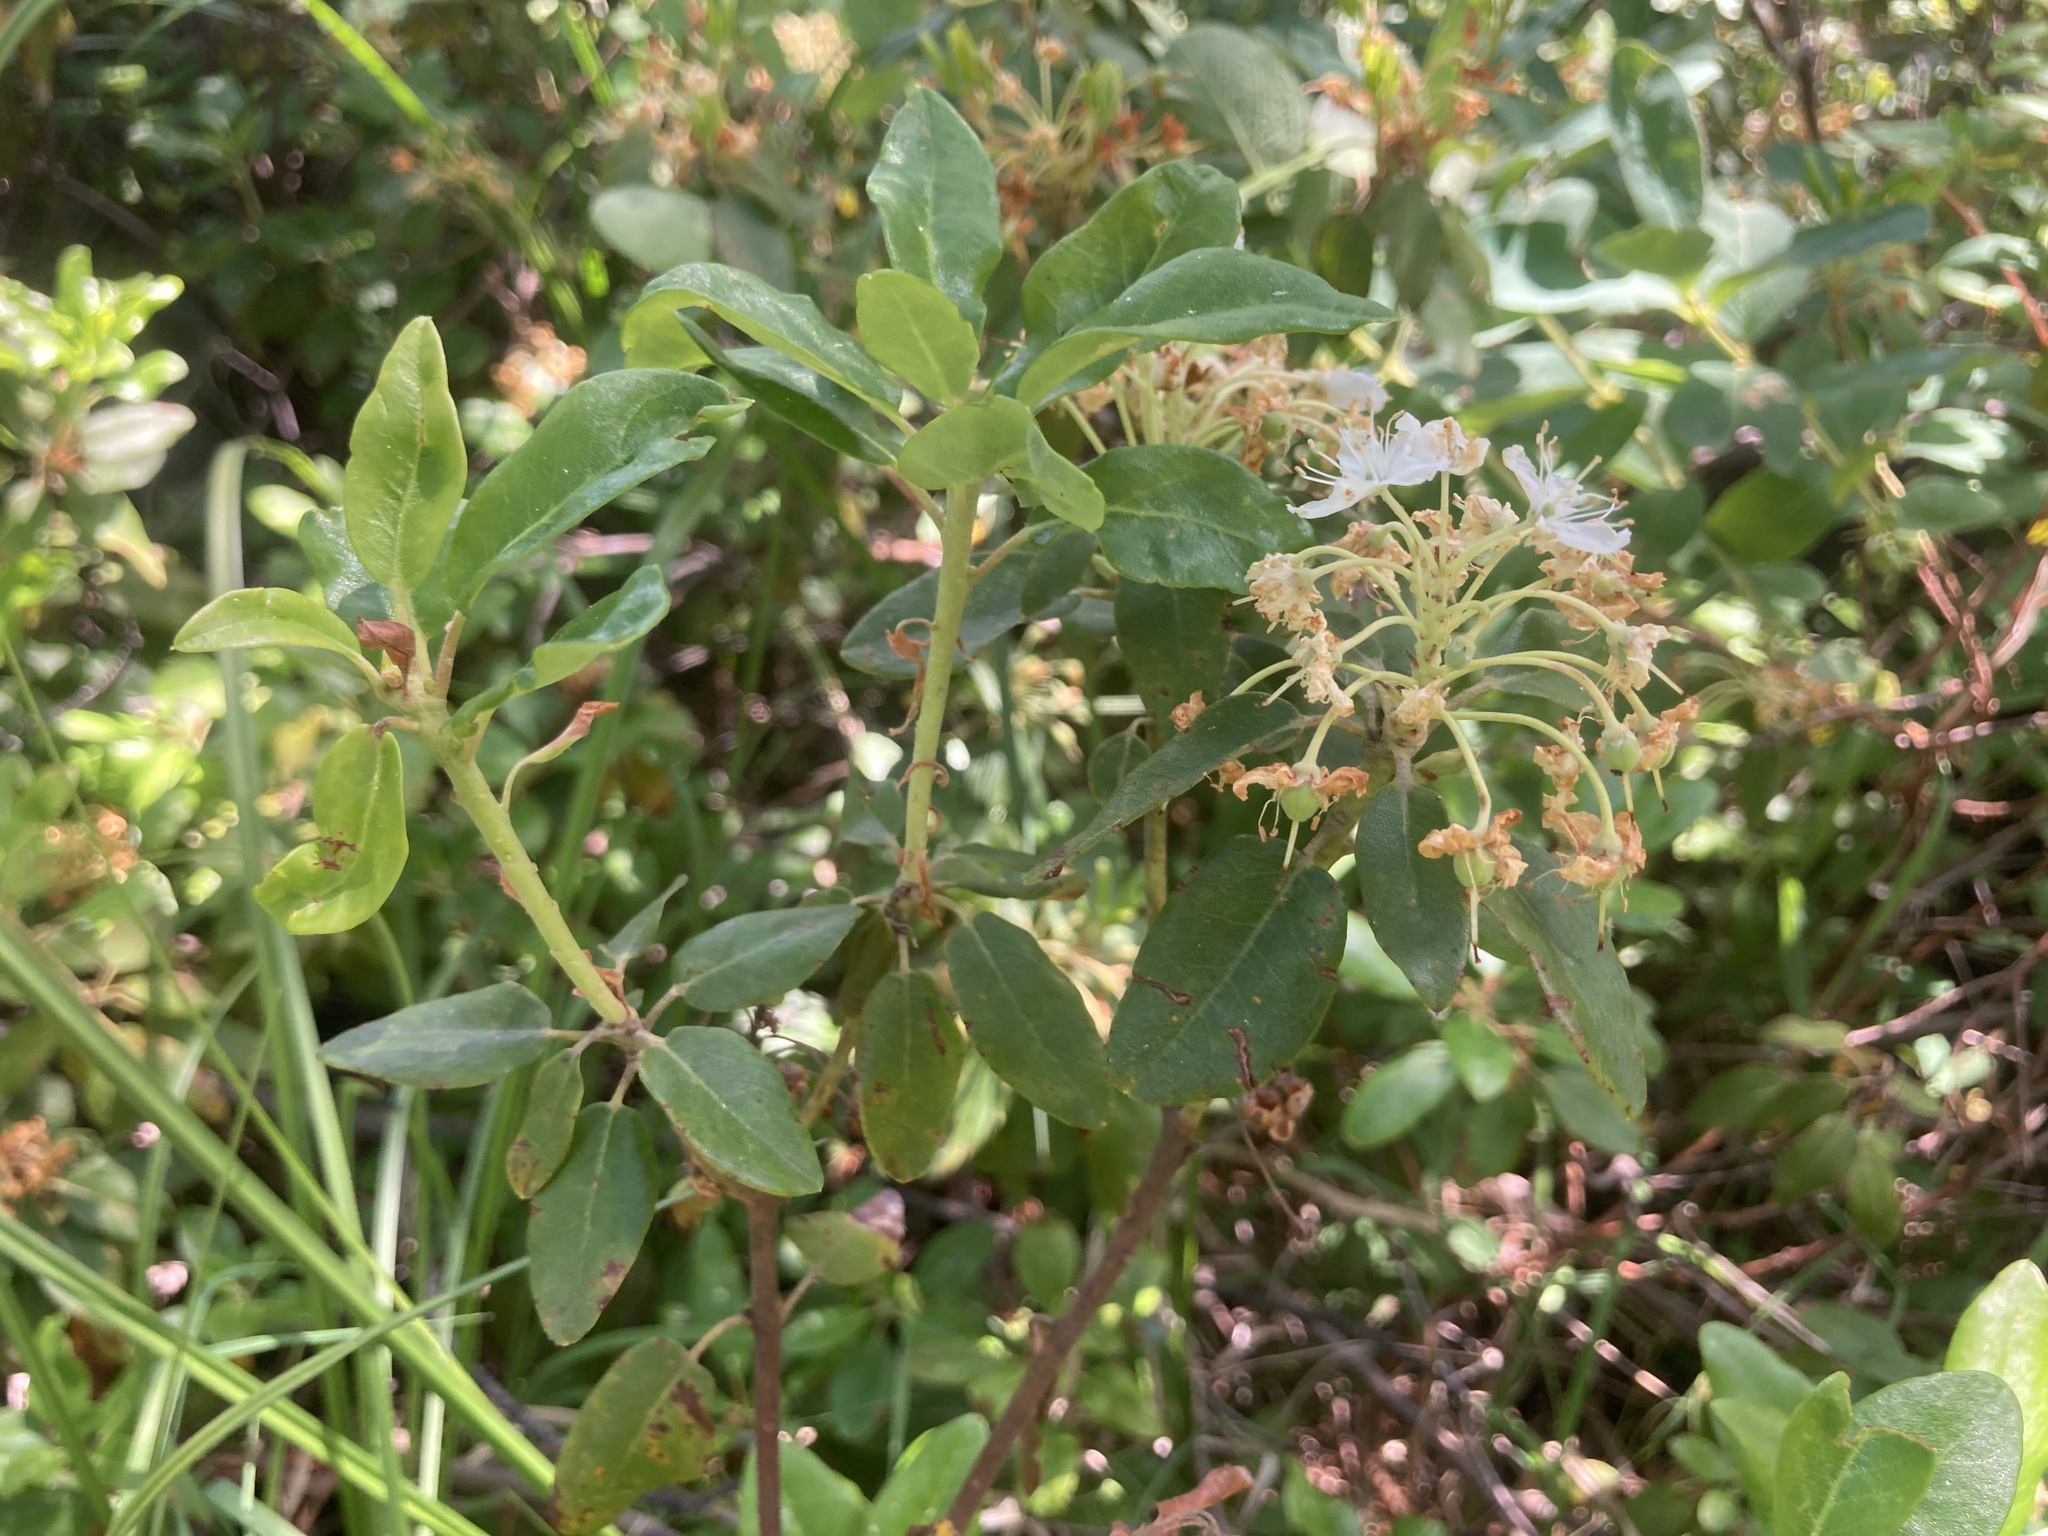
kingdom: Plantae
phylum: Tracheophyta
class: Magnoliopsida
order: Ericales
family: Ericaceae
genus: Rhododendron
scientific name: Rhododendron columbianum
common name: Western labrador tea
